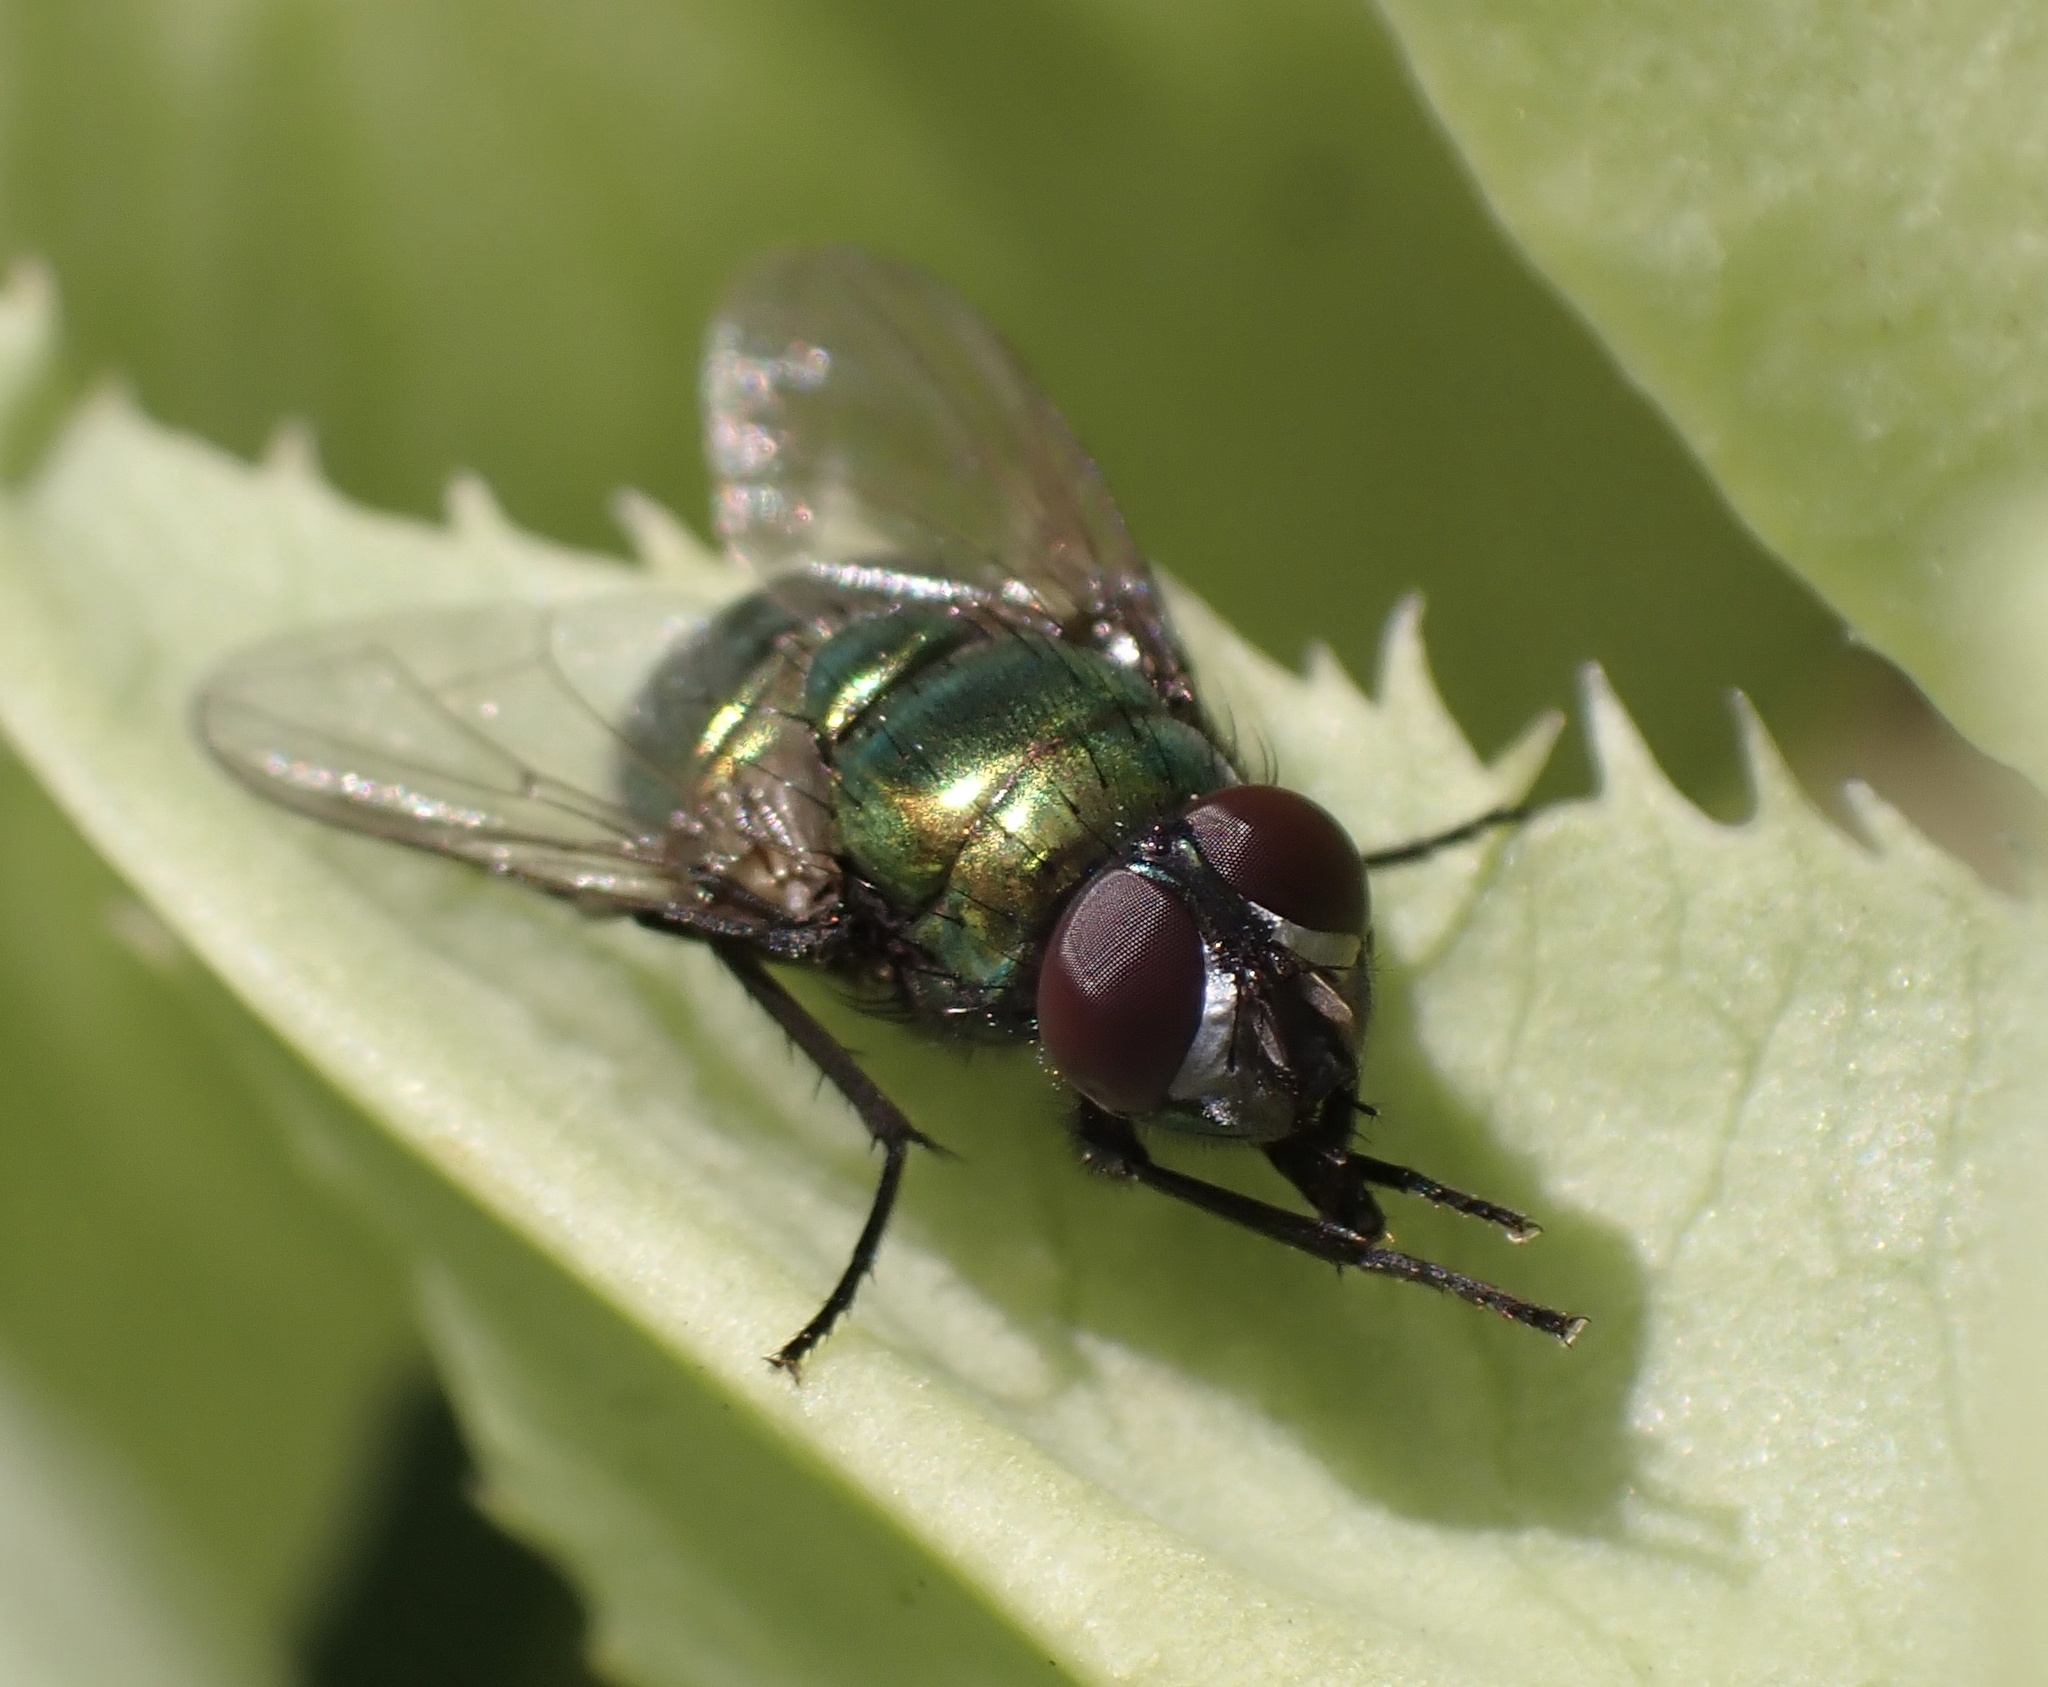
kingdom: Animalia
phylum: Arthropoda
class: Insecta
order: Diptera
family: Muscidae
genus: Neomyia
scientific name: Neomyia cornicina
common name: House fly
